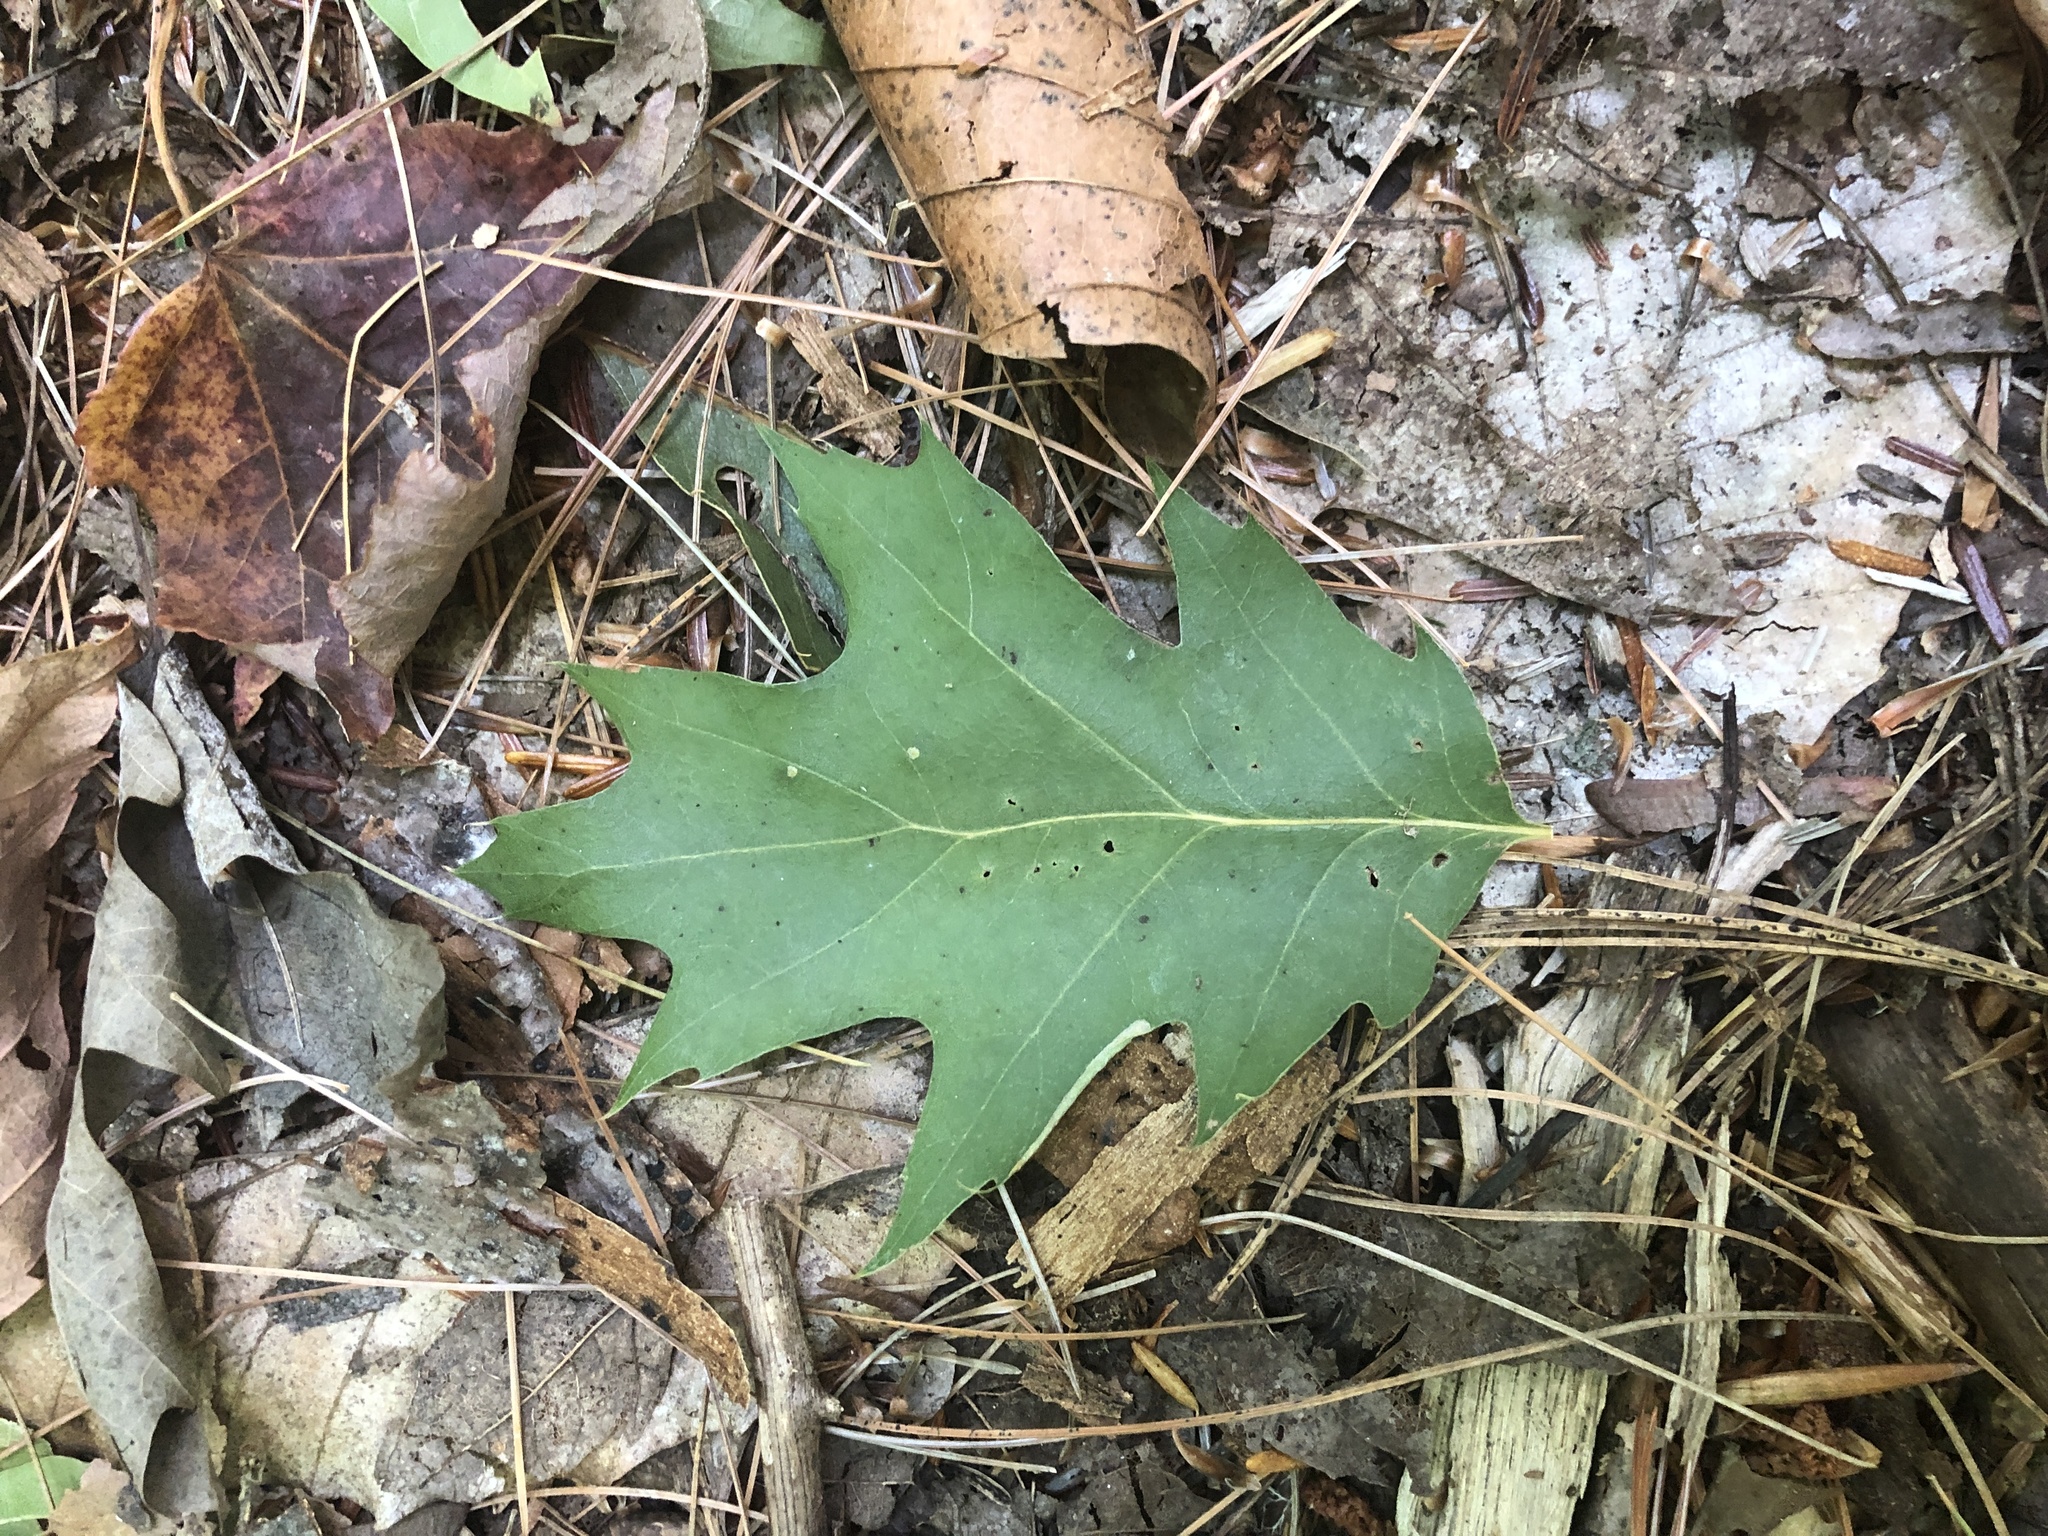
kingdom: Plantae
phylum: Tracheophyta
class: Magnoliopsida
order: Fagales
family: Fagaceae
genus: Quercus
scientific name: Quercus rubra
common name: Red oak
